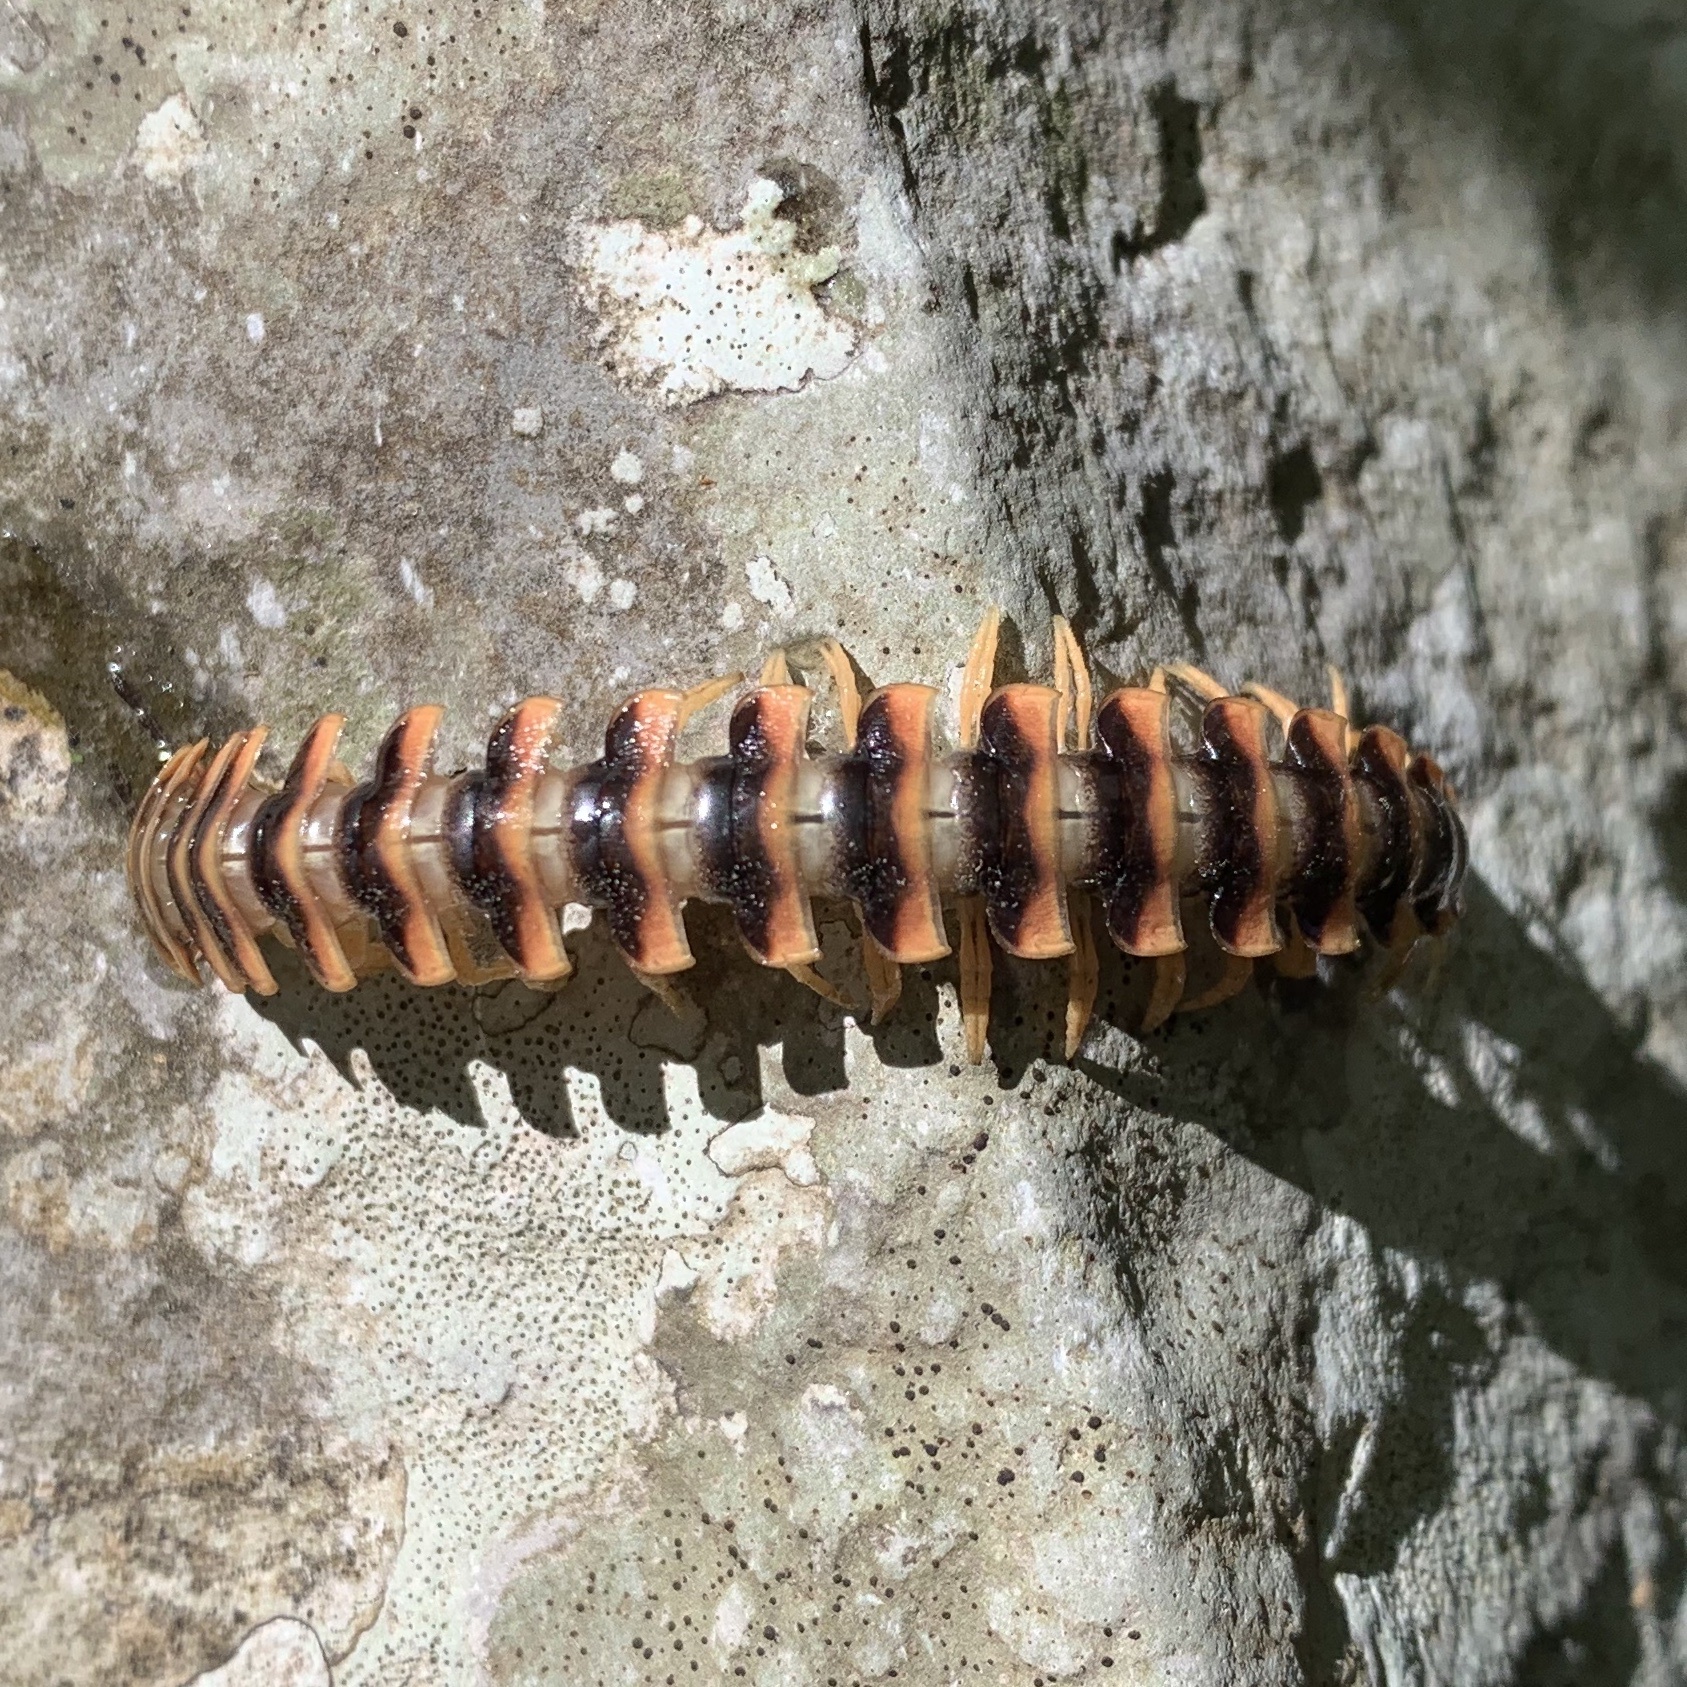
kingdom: Animalia
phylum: Arthropoda
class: Diplopoda
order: Polydesmida
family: Xystodesmidae
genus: Cherokia
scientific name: Cherokia georgiana
